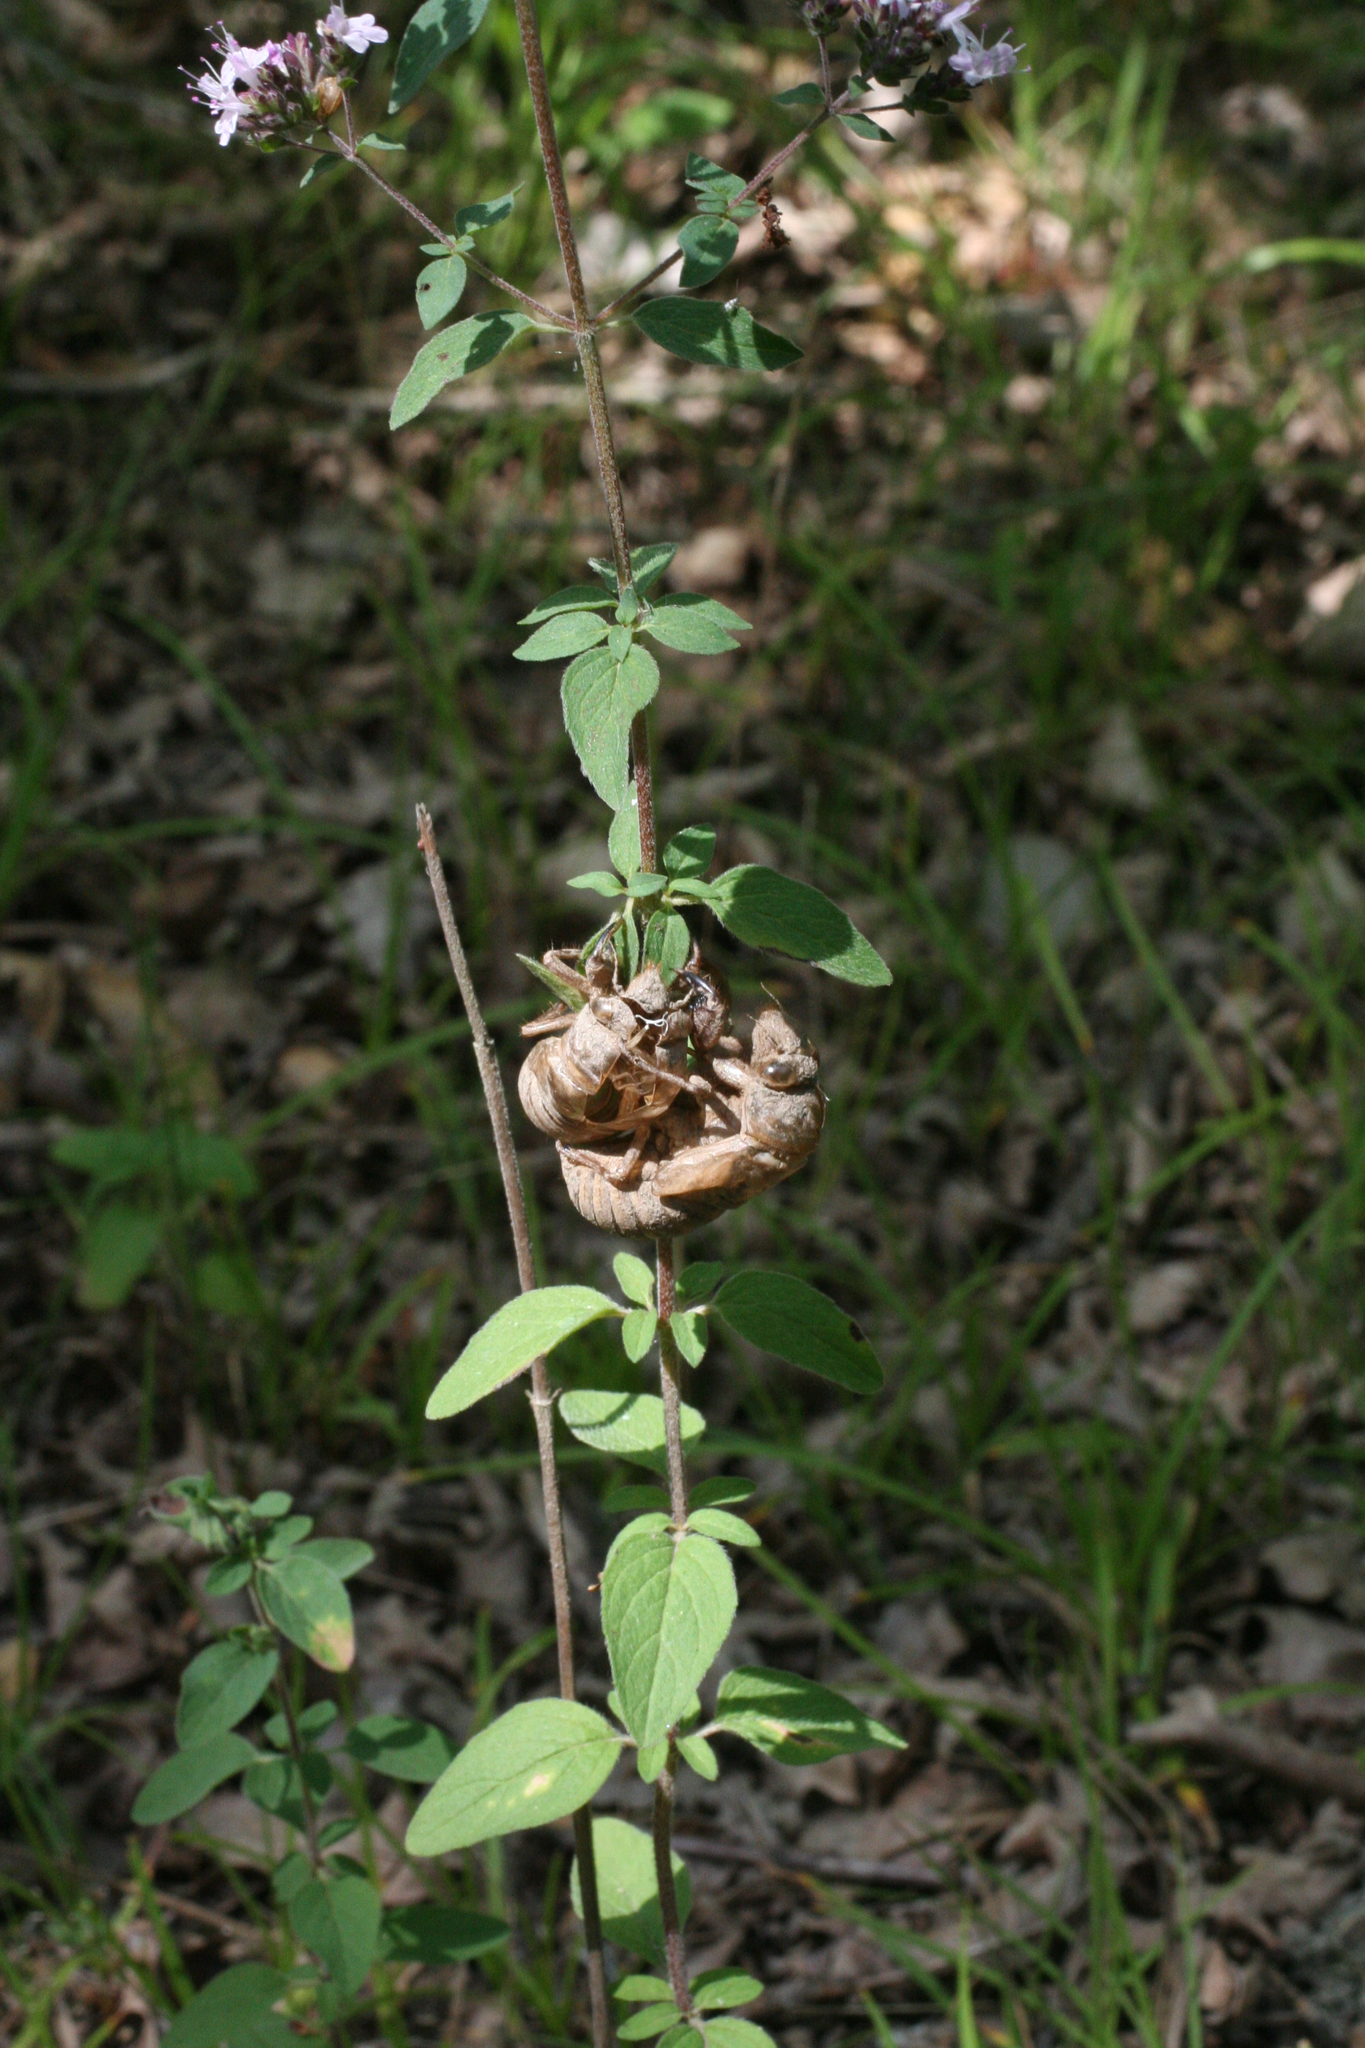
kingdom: Plantae
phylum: Tracheophyta
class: Magnoliopsida
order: Lamiales
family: Lamiaceae
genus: Origanum
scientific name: Origanum vulgare
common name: Wild marjoram
